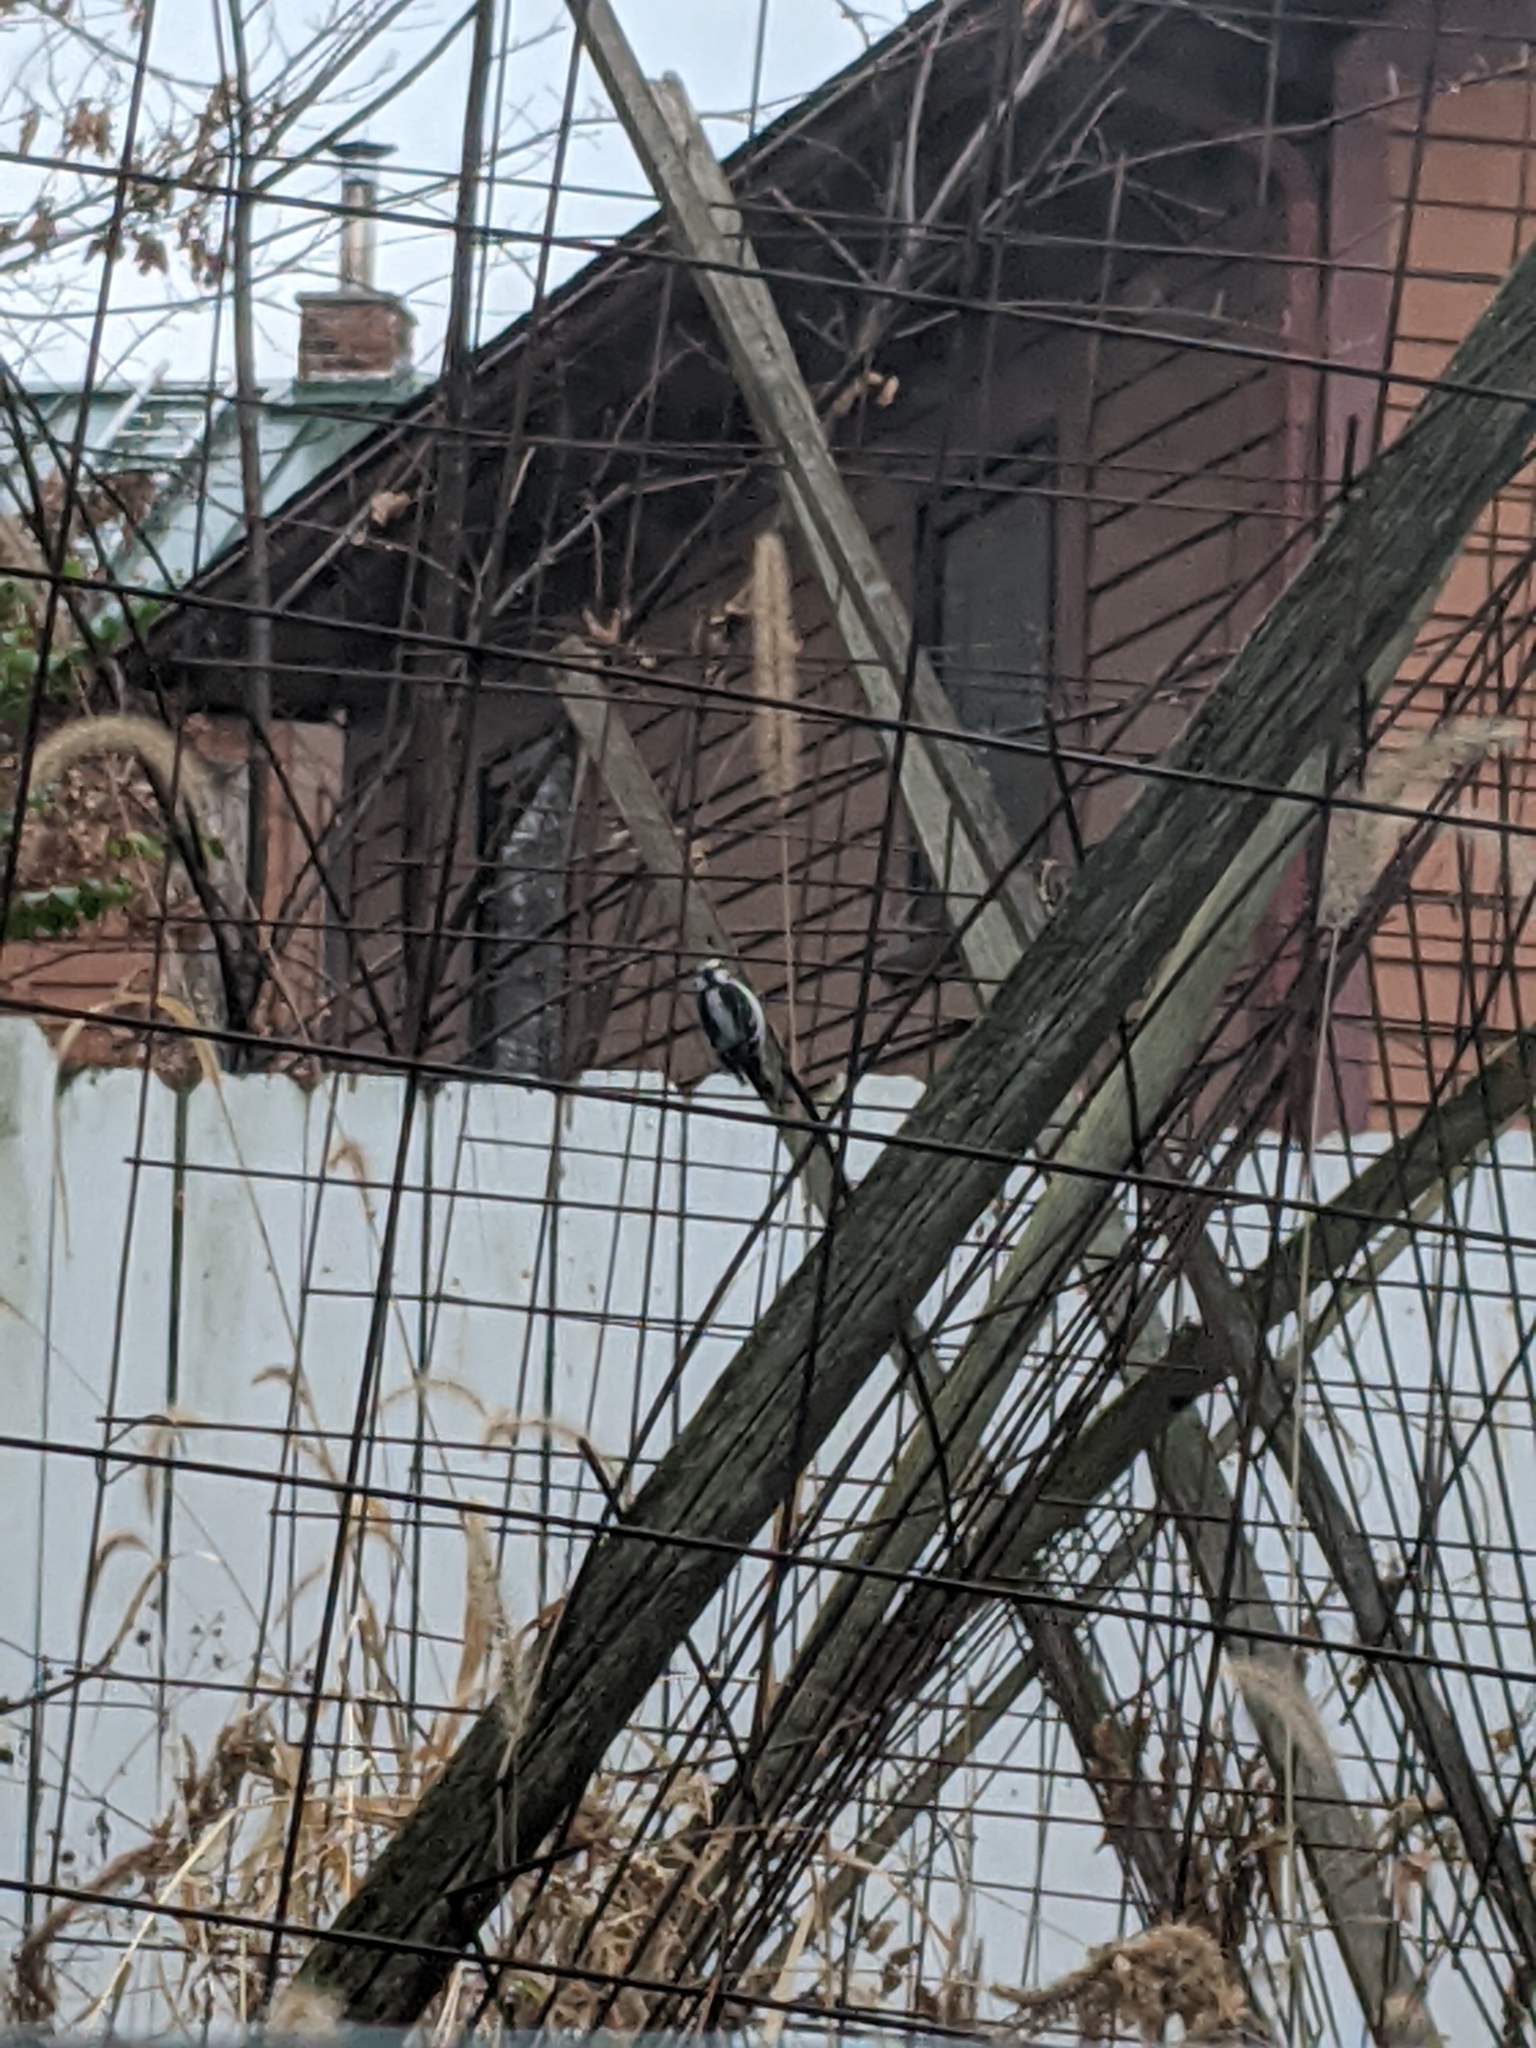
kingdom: Animalia
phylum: Chordata
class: Aves
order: Piciformes
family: Picidae
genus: Leuconotopicus
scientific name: Leuconotopicus villosus
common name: Hairy woodpecker
